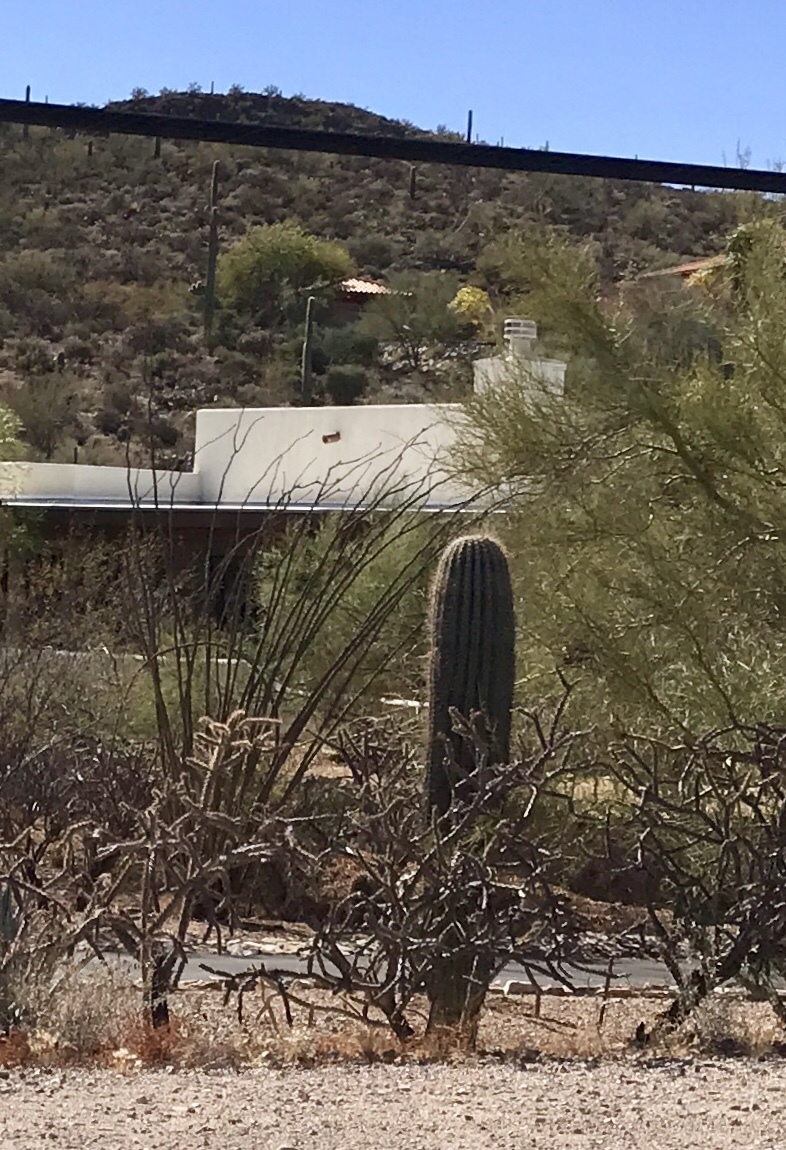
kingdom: Plantae
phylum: Tracheophyta
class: Magnoliopsida
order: Caryophyllales
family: Cactaceae
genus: Carnegiea
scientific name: Carnegiea gigantea
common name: Saguaro
